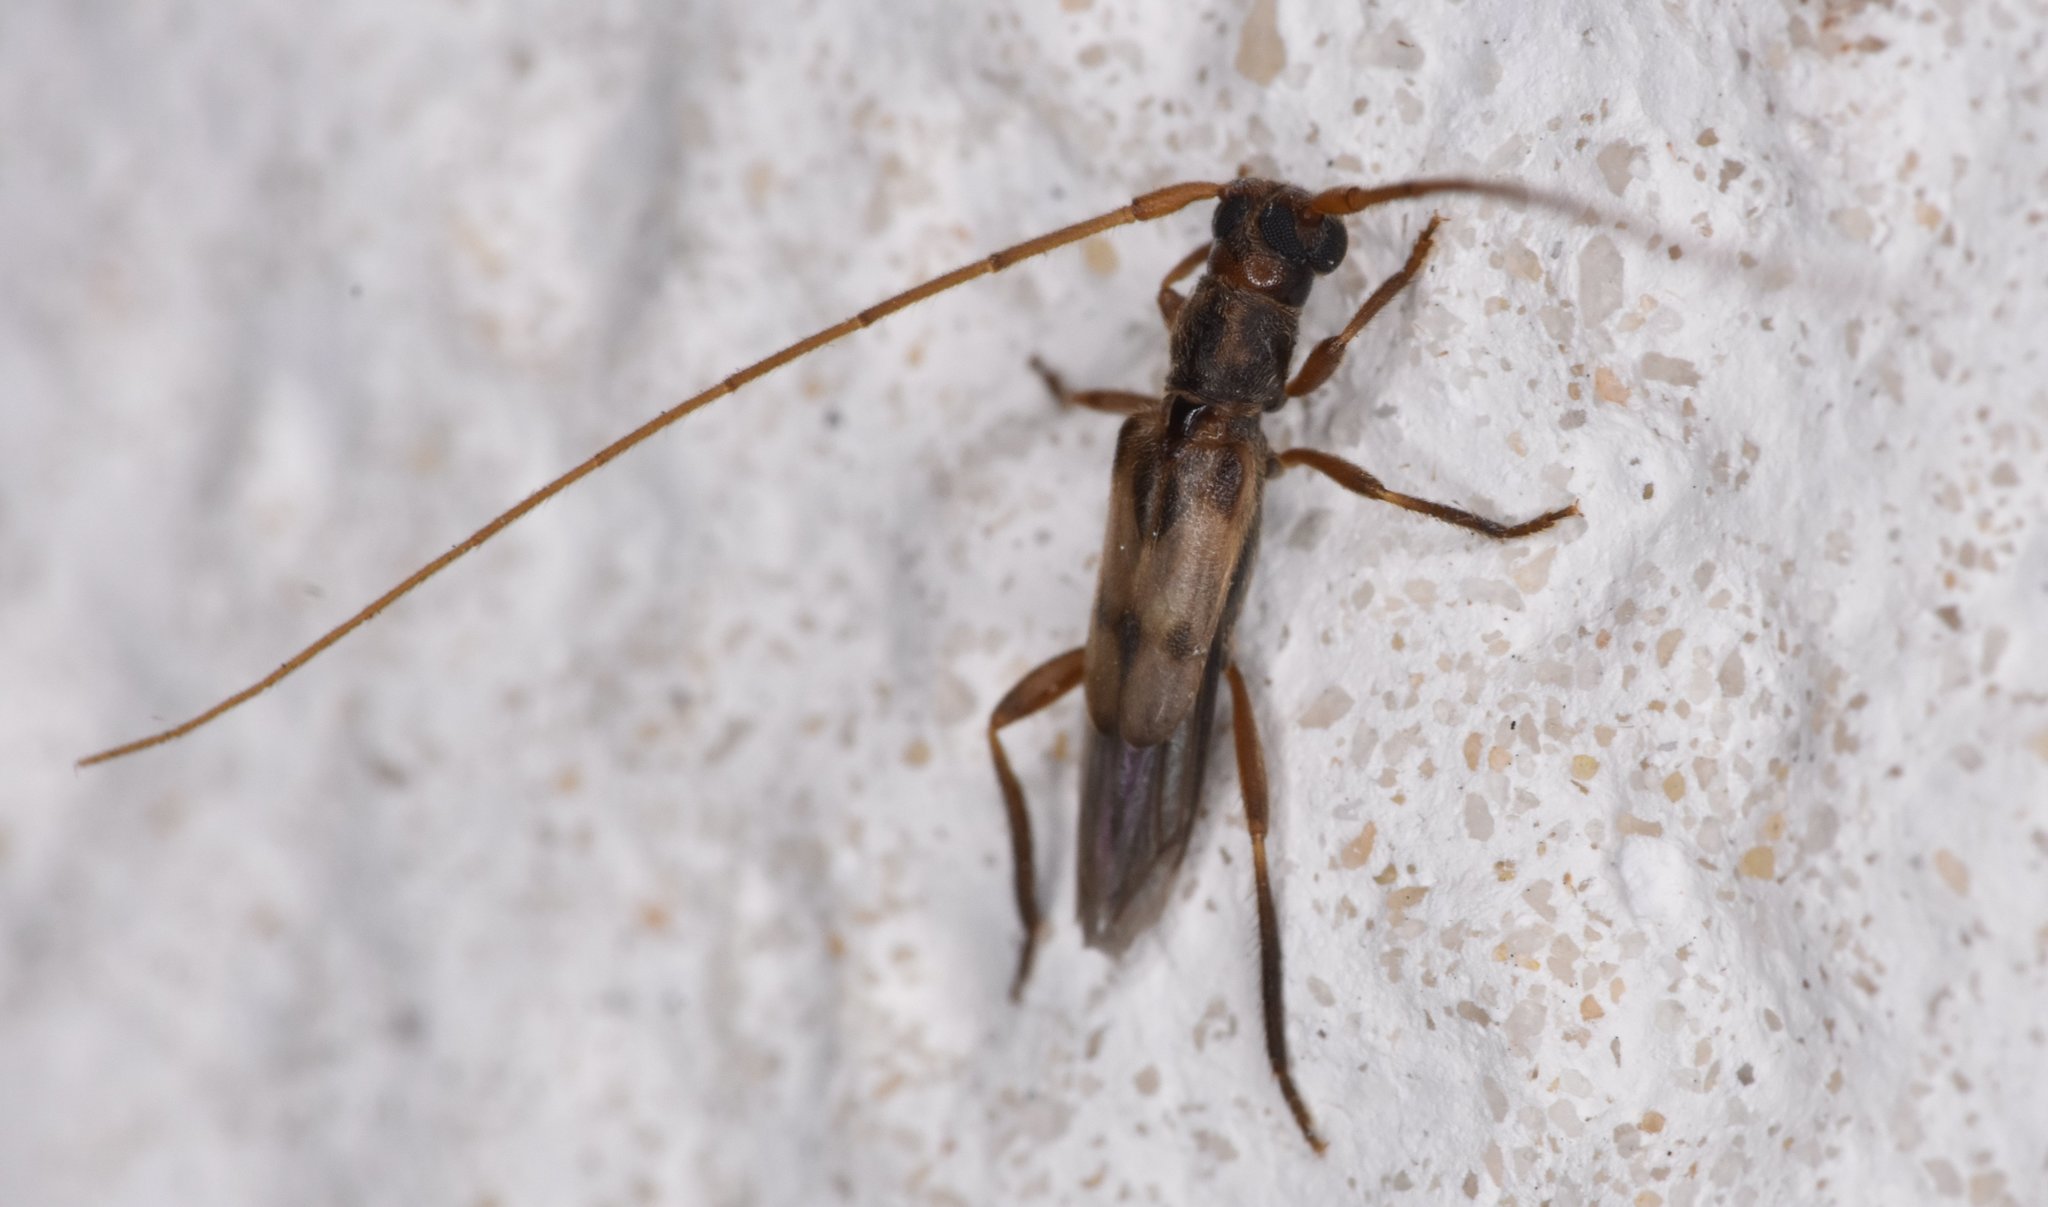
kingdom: Animalia
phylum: Arthropoda
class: Insecta
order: Coleoptera
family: Cerambycidae
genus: Methia
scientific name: Methia necydalea
